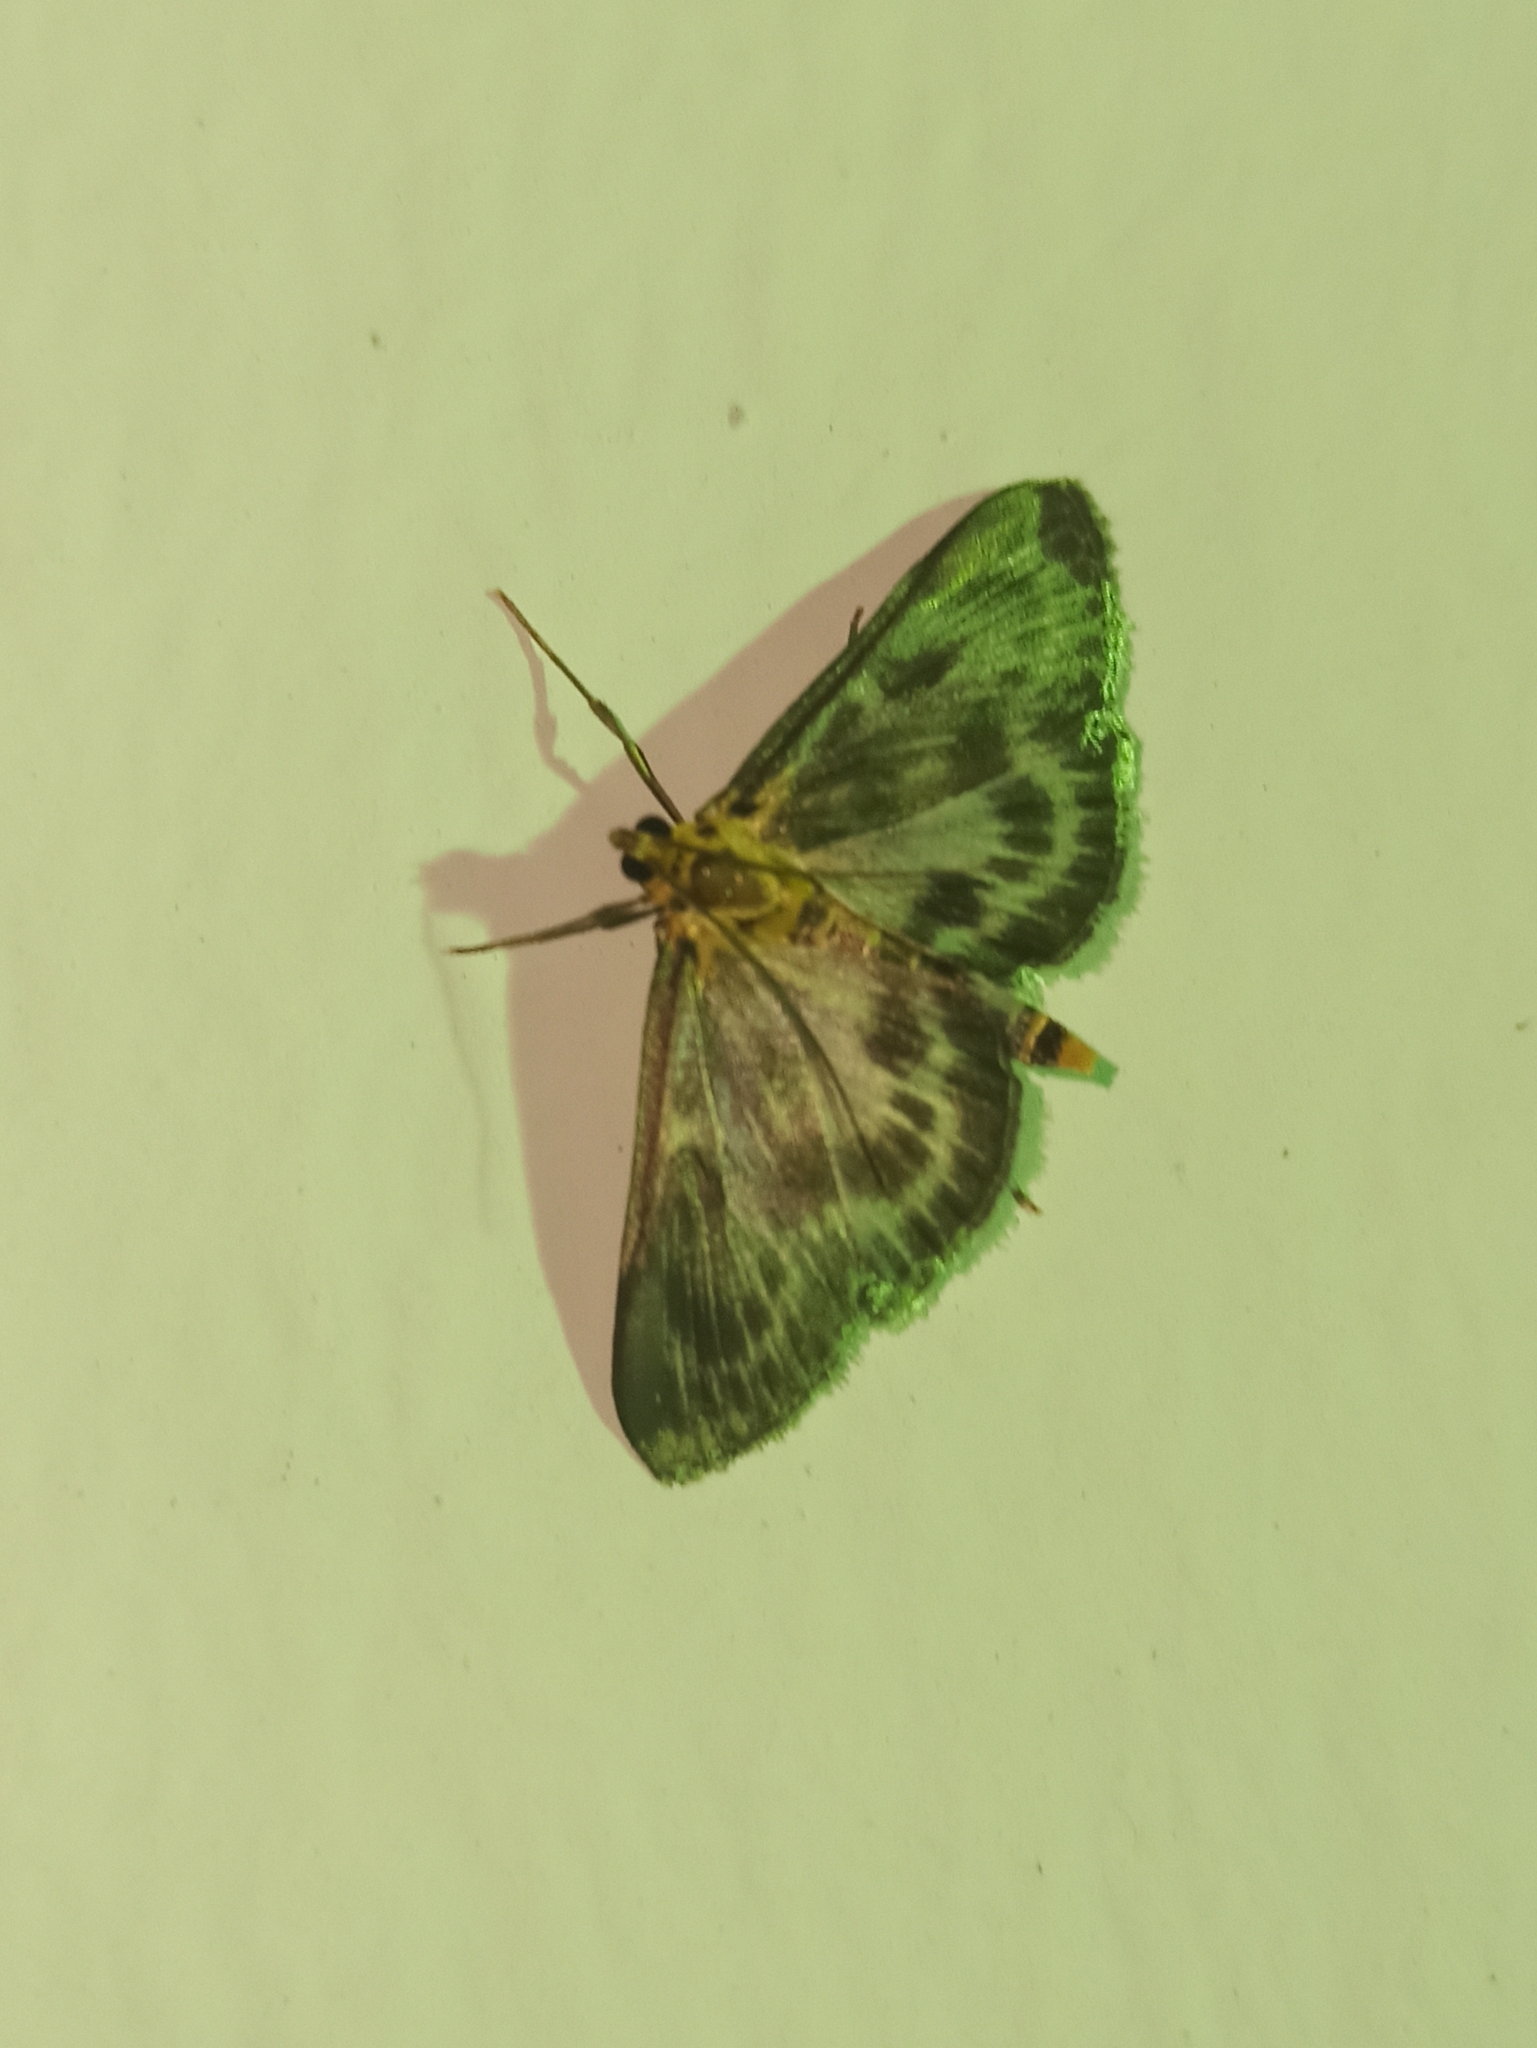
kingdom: Animalia
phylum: Arthropoda
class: Insecta
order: Lepidoptera
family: Crambidae
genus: Anania
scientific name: Anania hortulata
